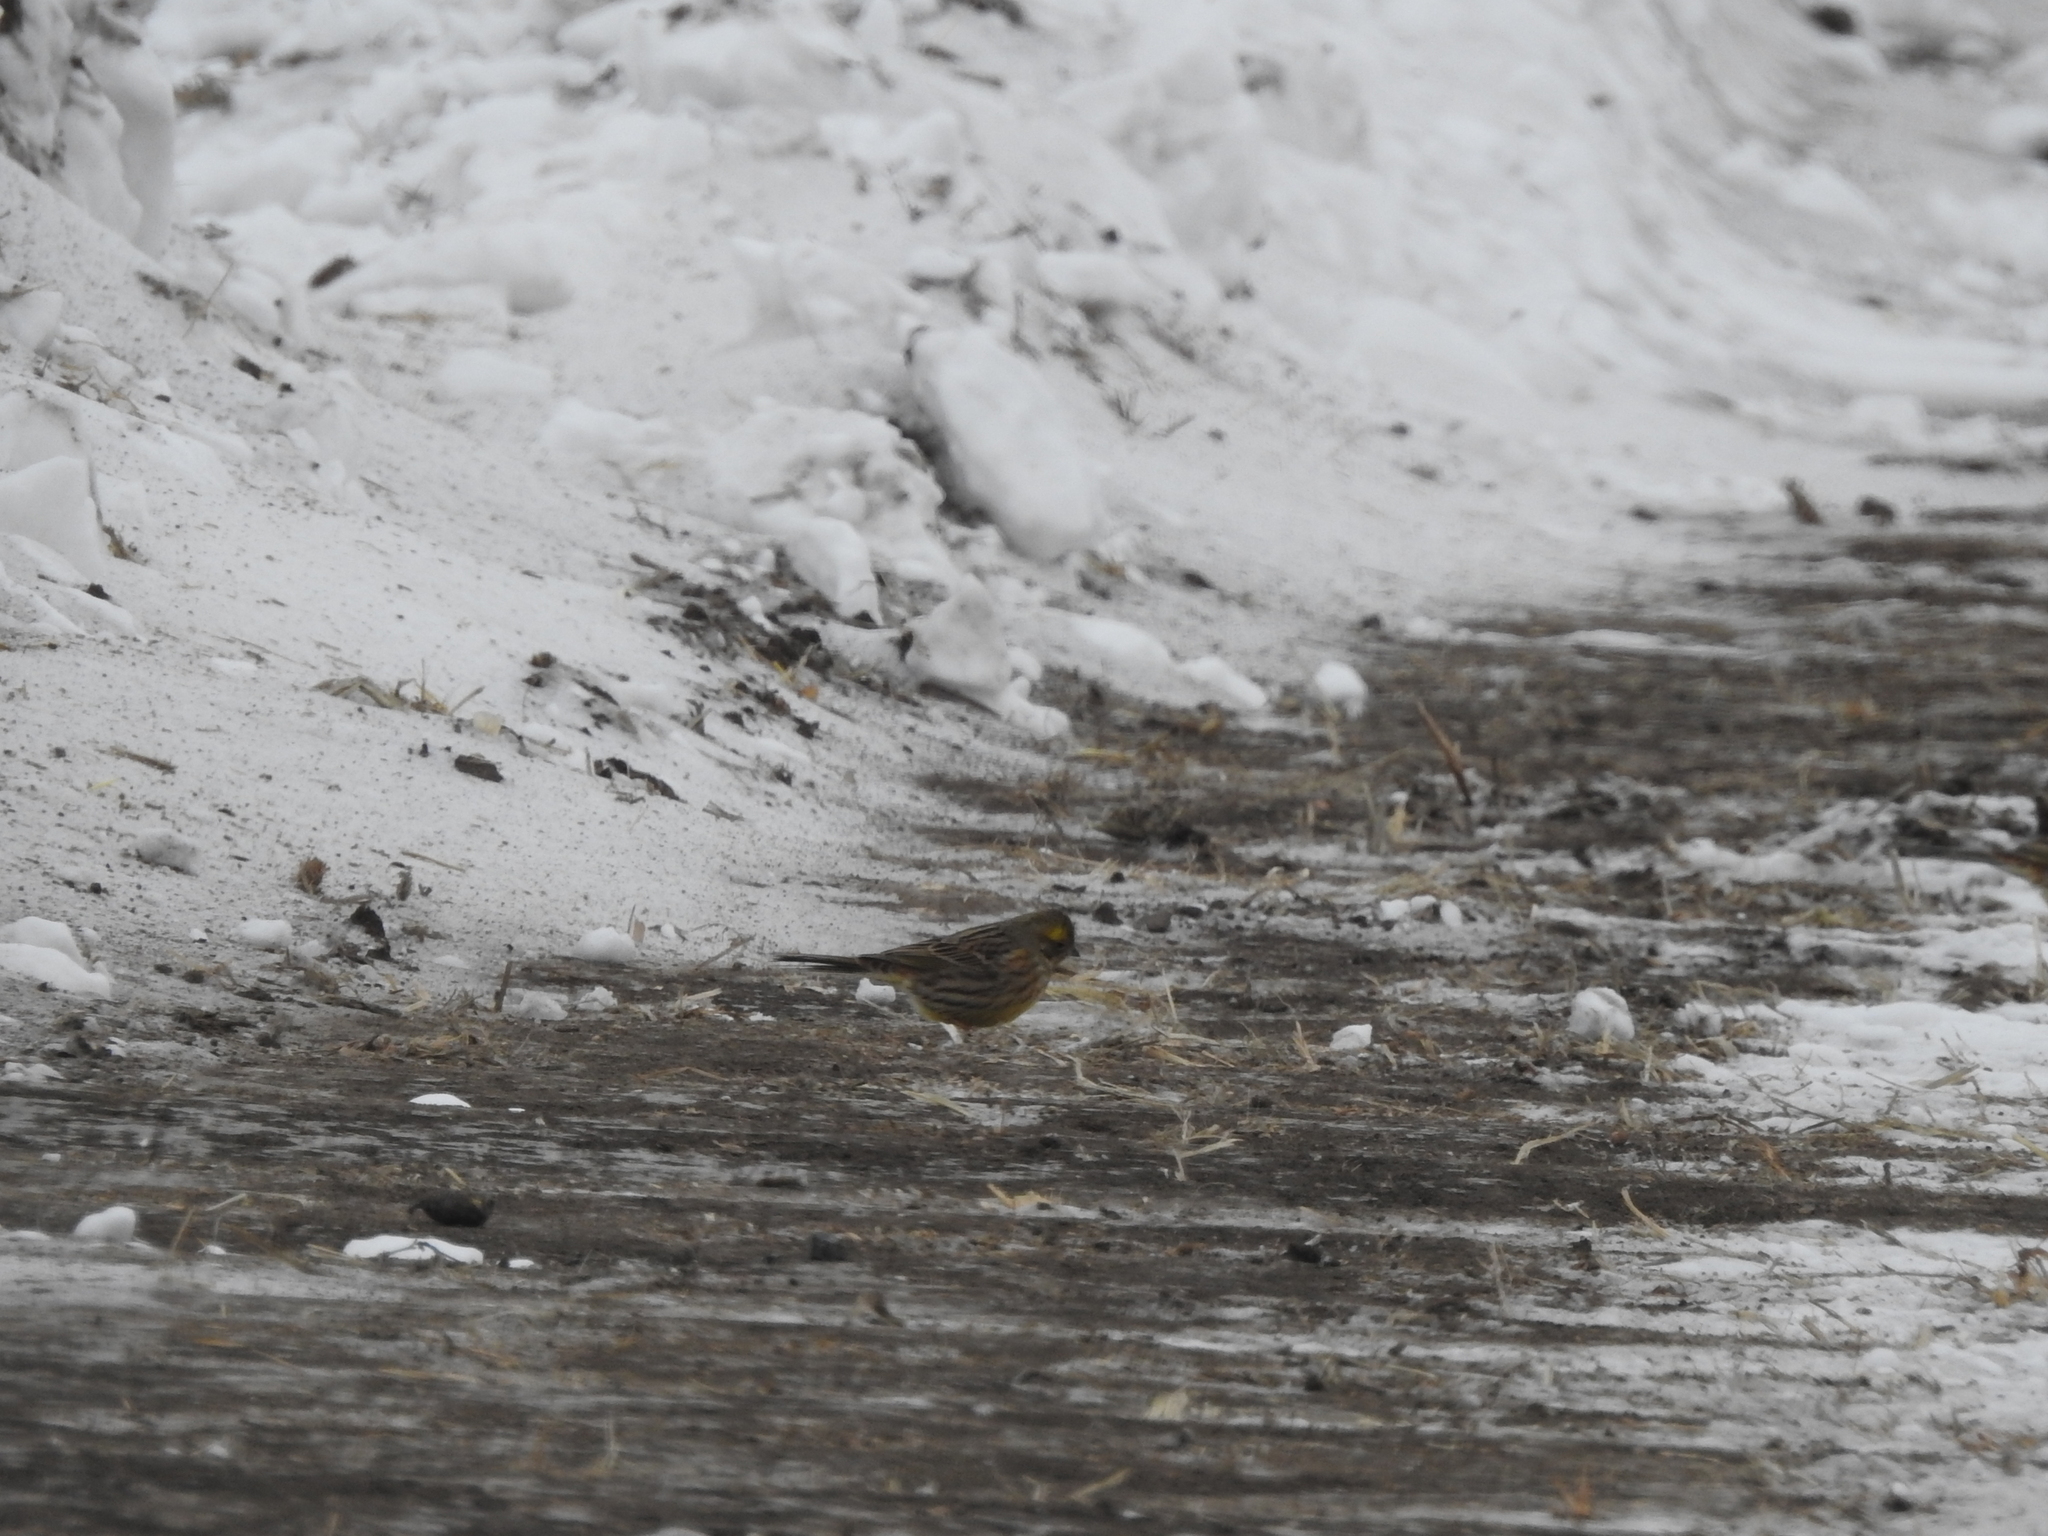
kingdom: Animalia
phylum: Chordata
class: Aves
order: Passeriformes
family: Emberizidae
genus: Emberiza
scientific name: Emberiza citrinella
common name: Yellowhammer
